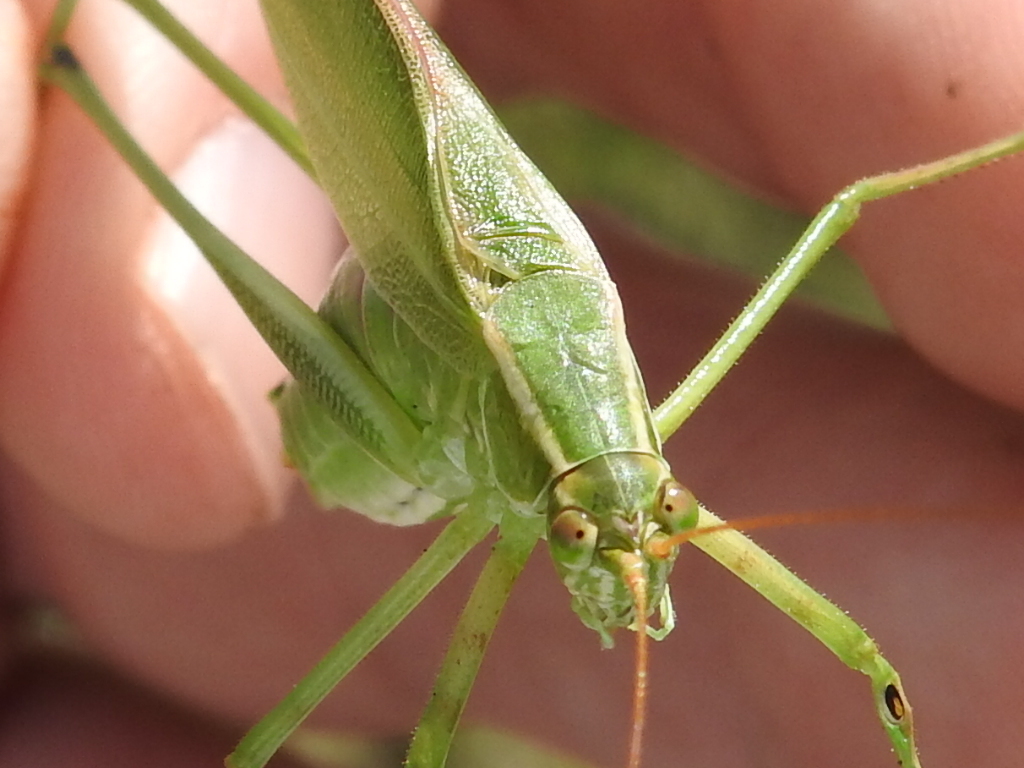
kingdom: Animalia
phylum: Arthropoda
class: Insecta
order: Orthoptera
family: Tettigoniidae
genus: Scudderia
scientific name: Scudderia furcata
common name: Fork-tailed bush katydid
